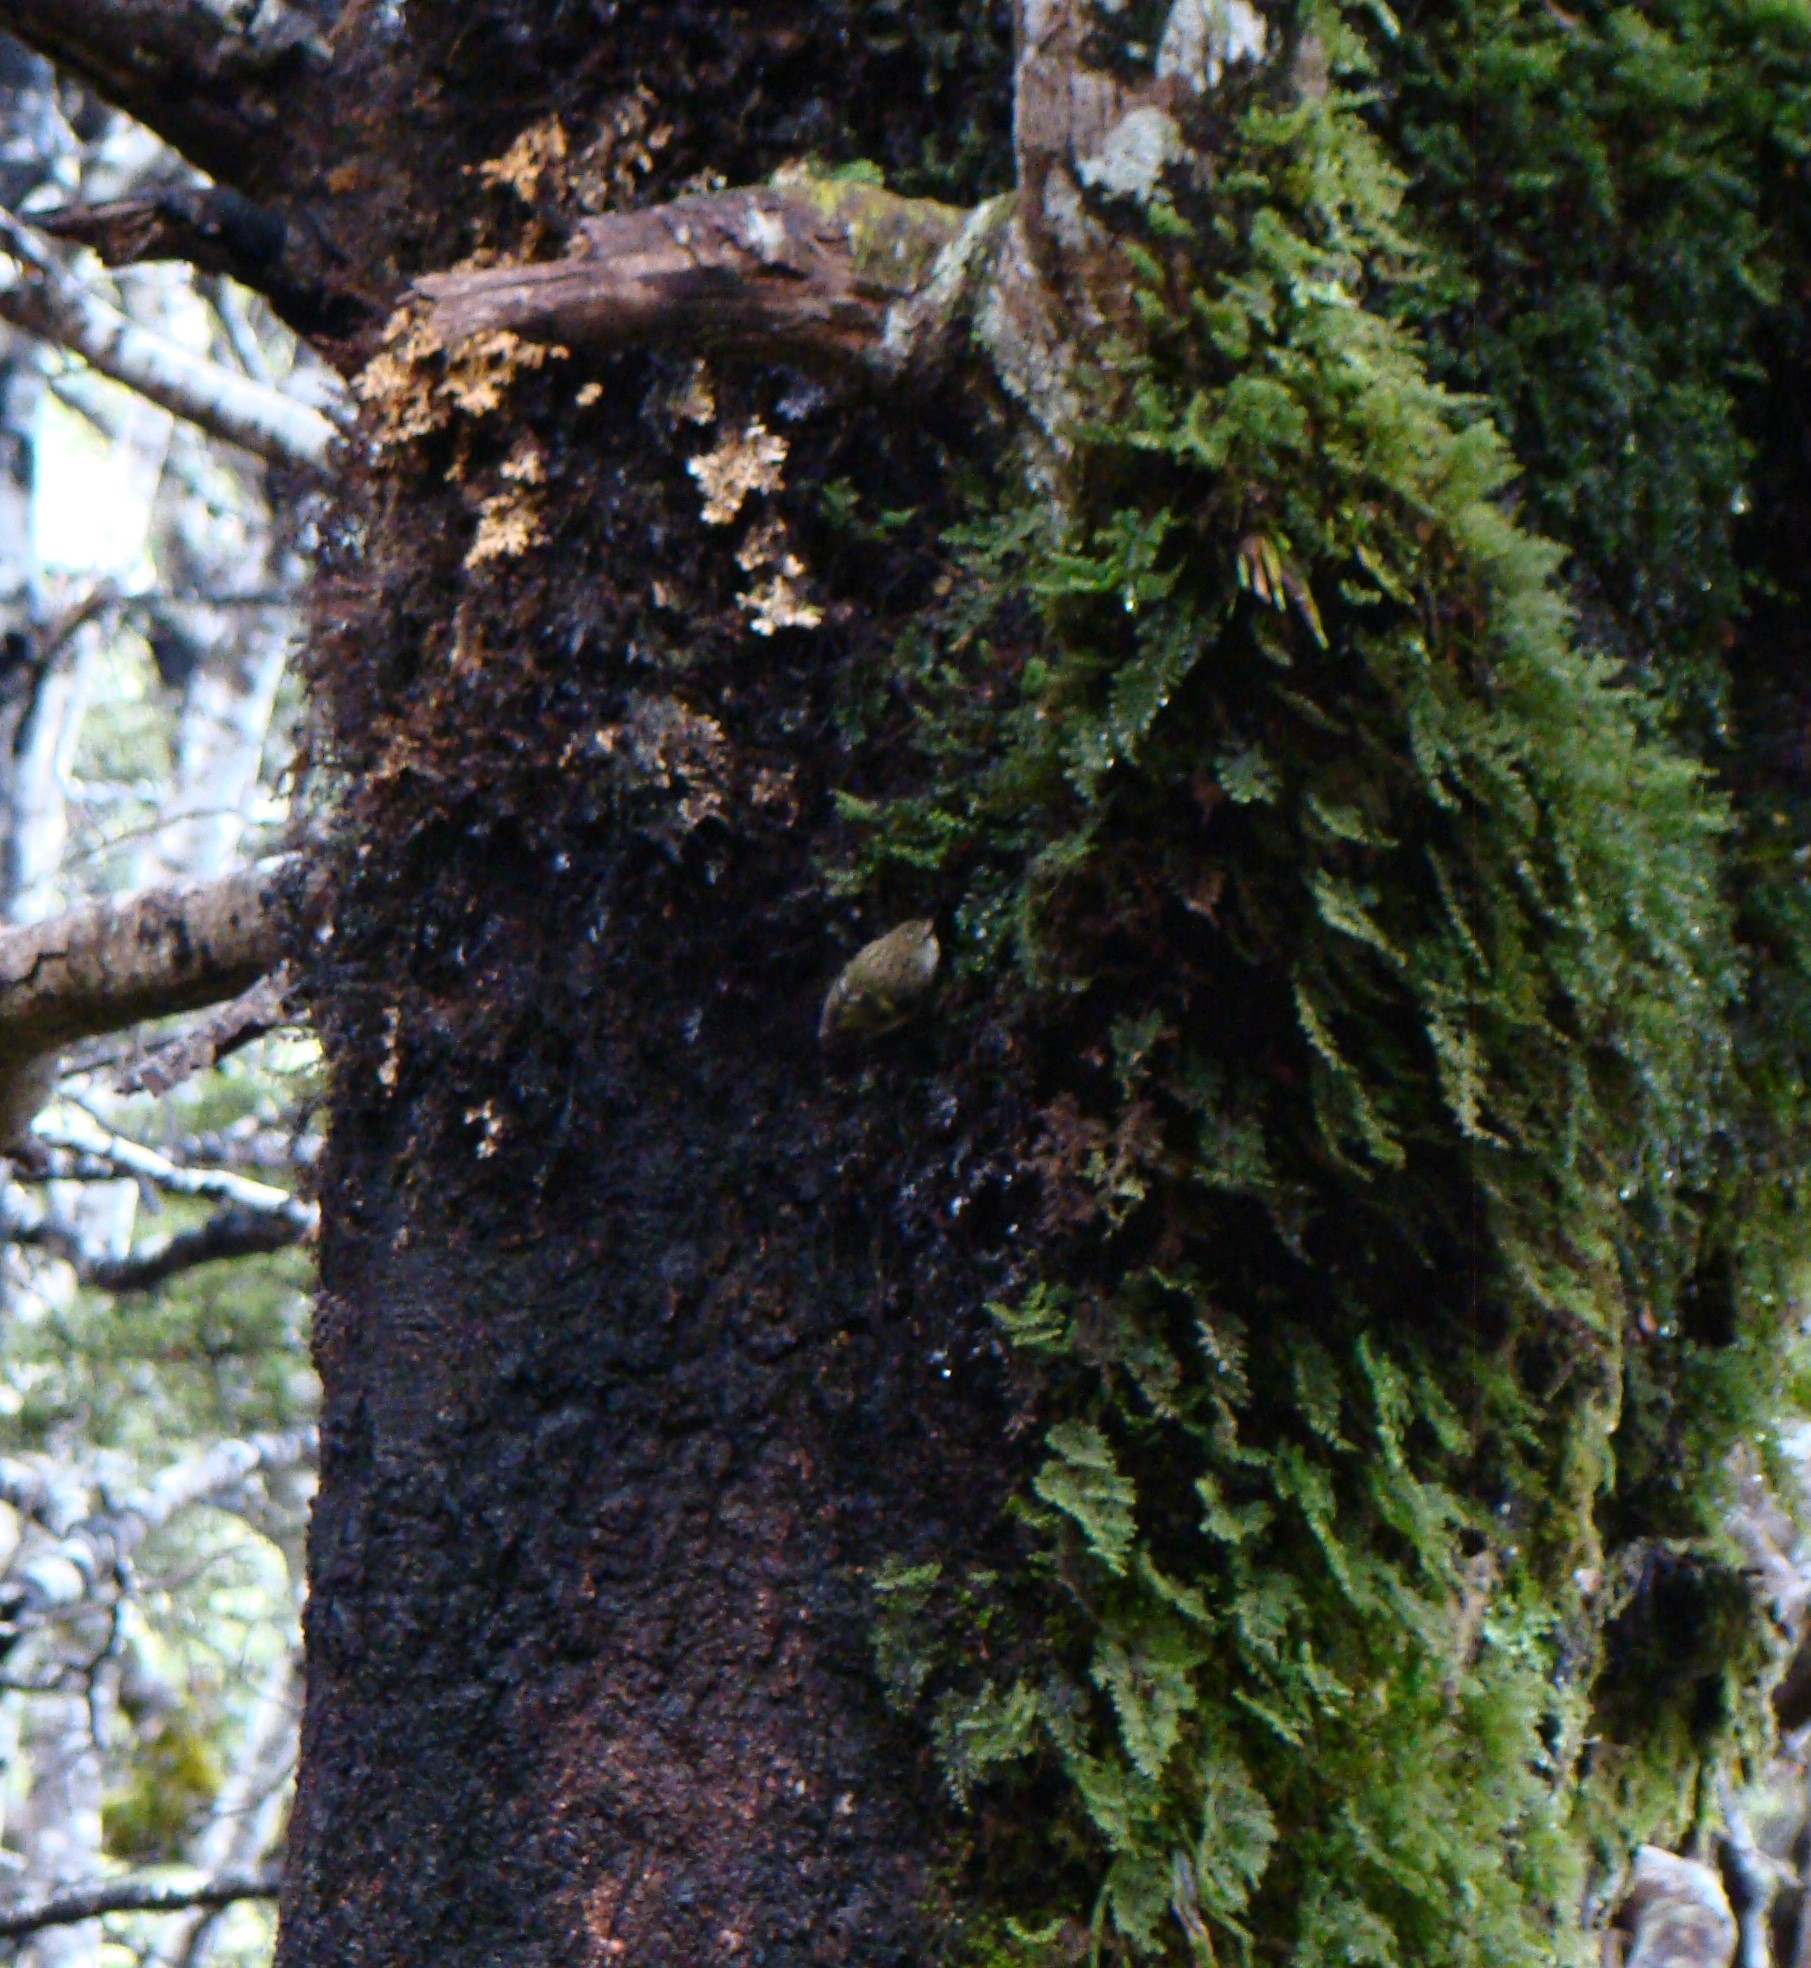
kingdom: Animalia
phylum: Chordata
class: Aves
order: Passeriformes
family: Acanthisittidae
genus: Acanthisitta
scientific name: Acanthisitta chloris
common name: Rifleman
